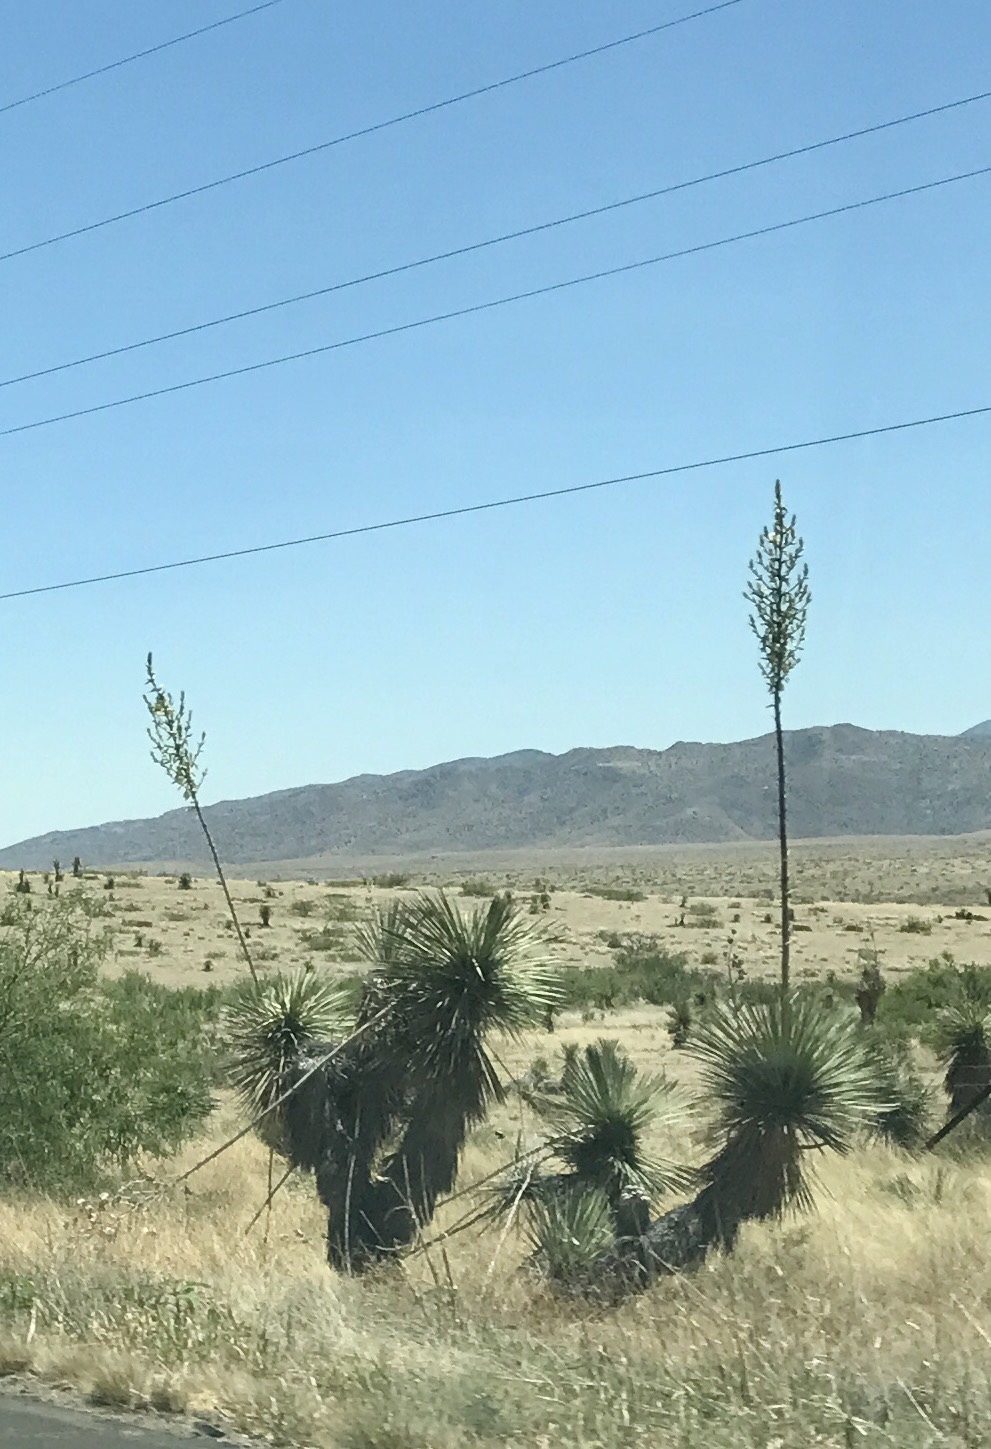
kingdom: Plantae
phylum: Tracheophyta
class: Liliopsida
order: Asparagales
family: Asparagaceae
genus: Yucca
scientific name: Yucca elata
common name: Palmella
